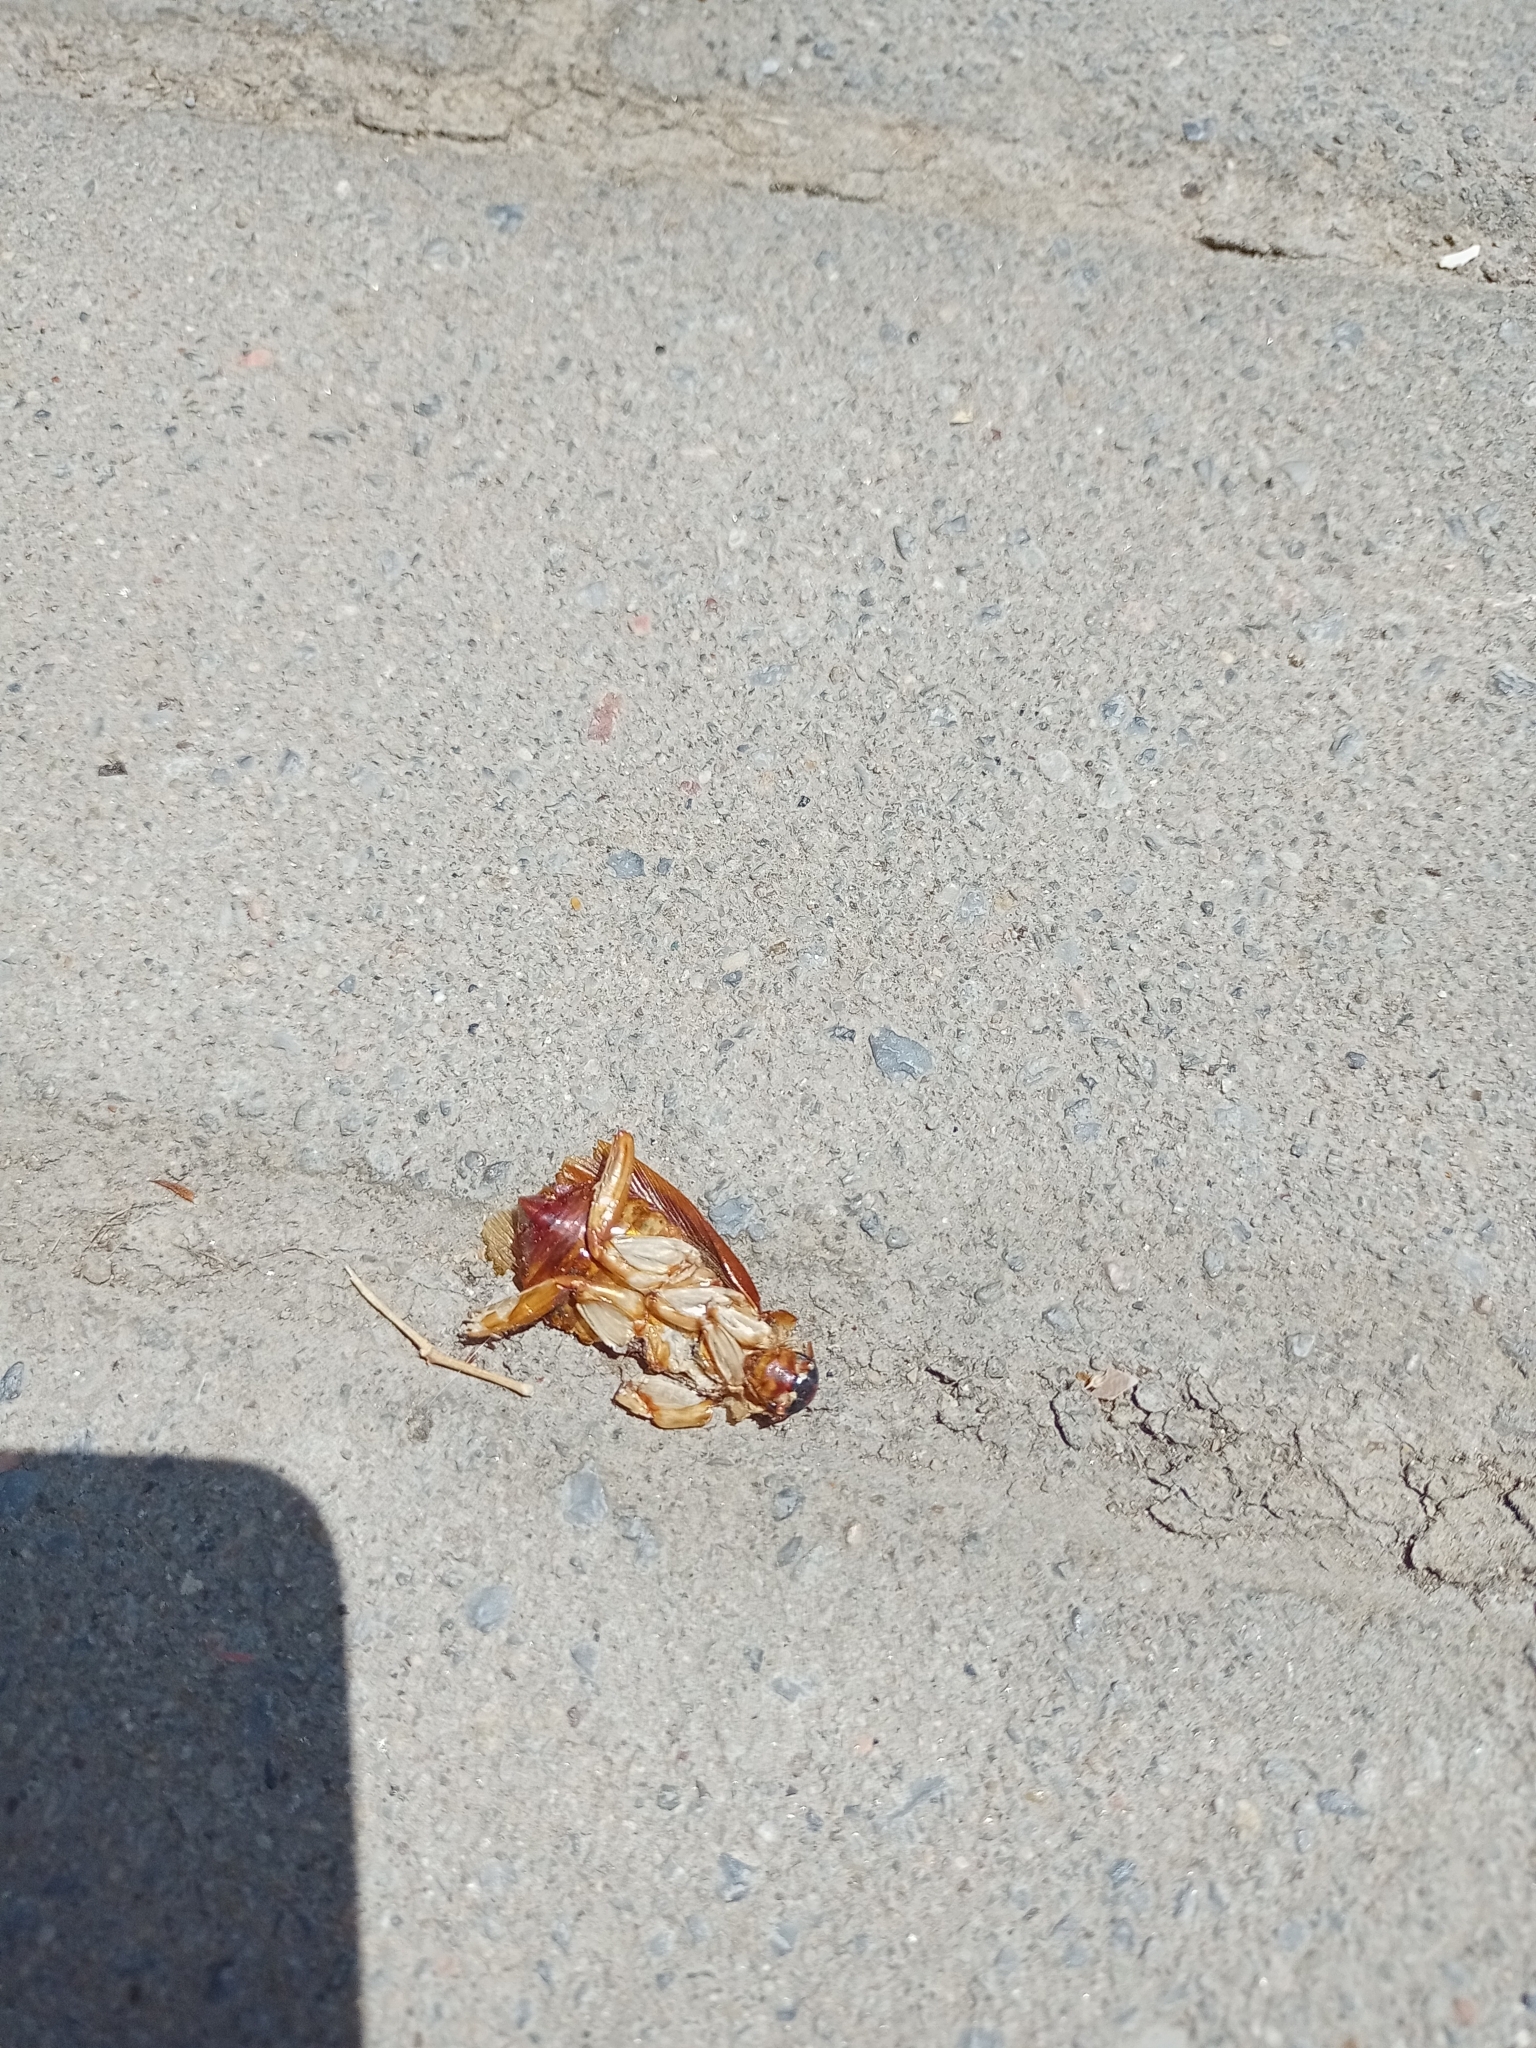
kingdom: Animalia
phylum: Arthropoda
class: Insecta
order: Blattodea
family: Blattidae
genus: Periplaneta
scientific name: Periplaneta americana
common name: American cockroach
